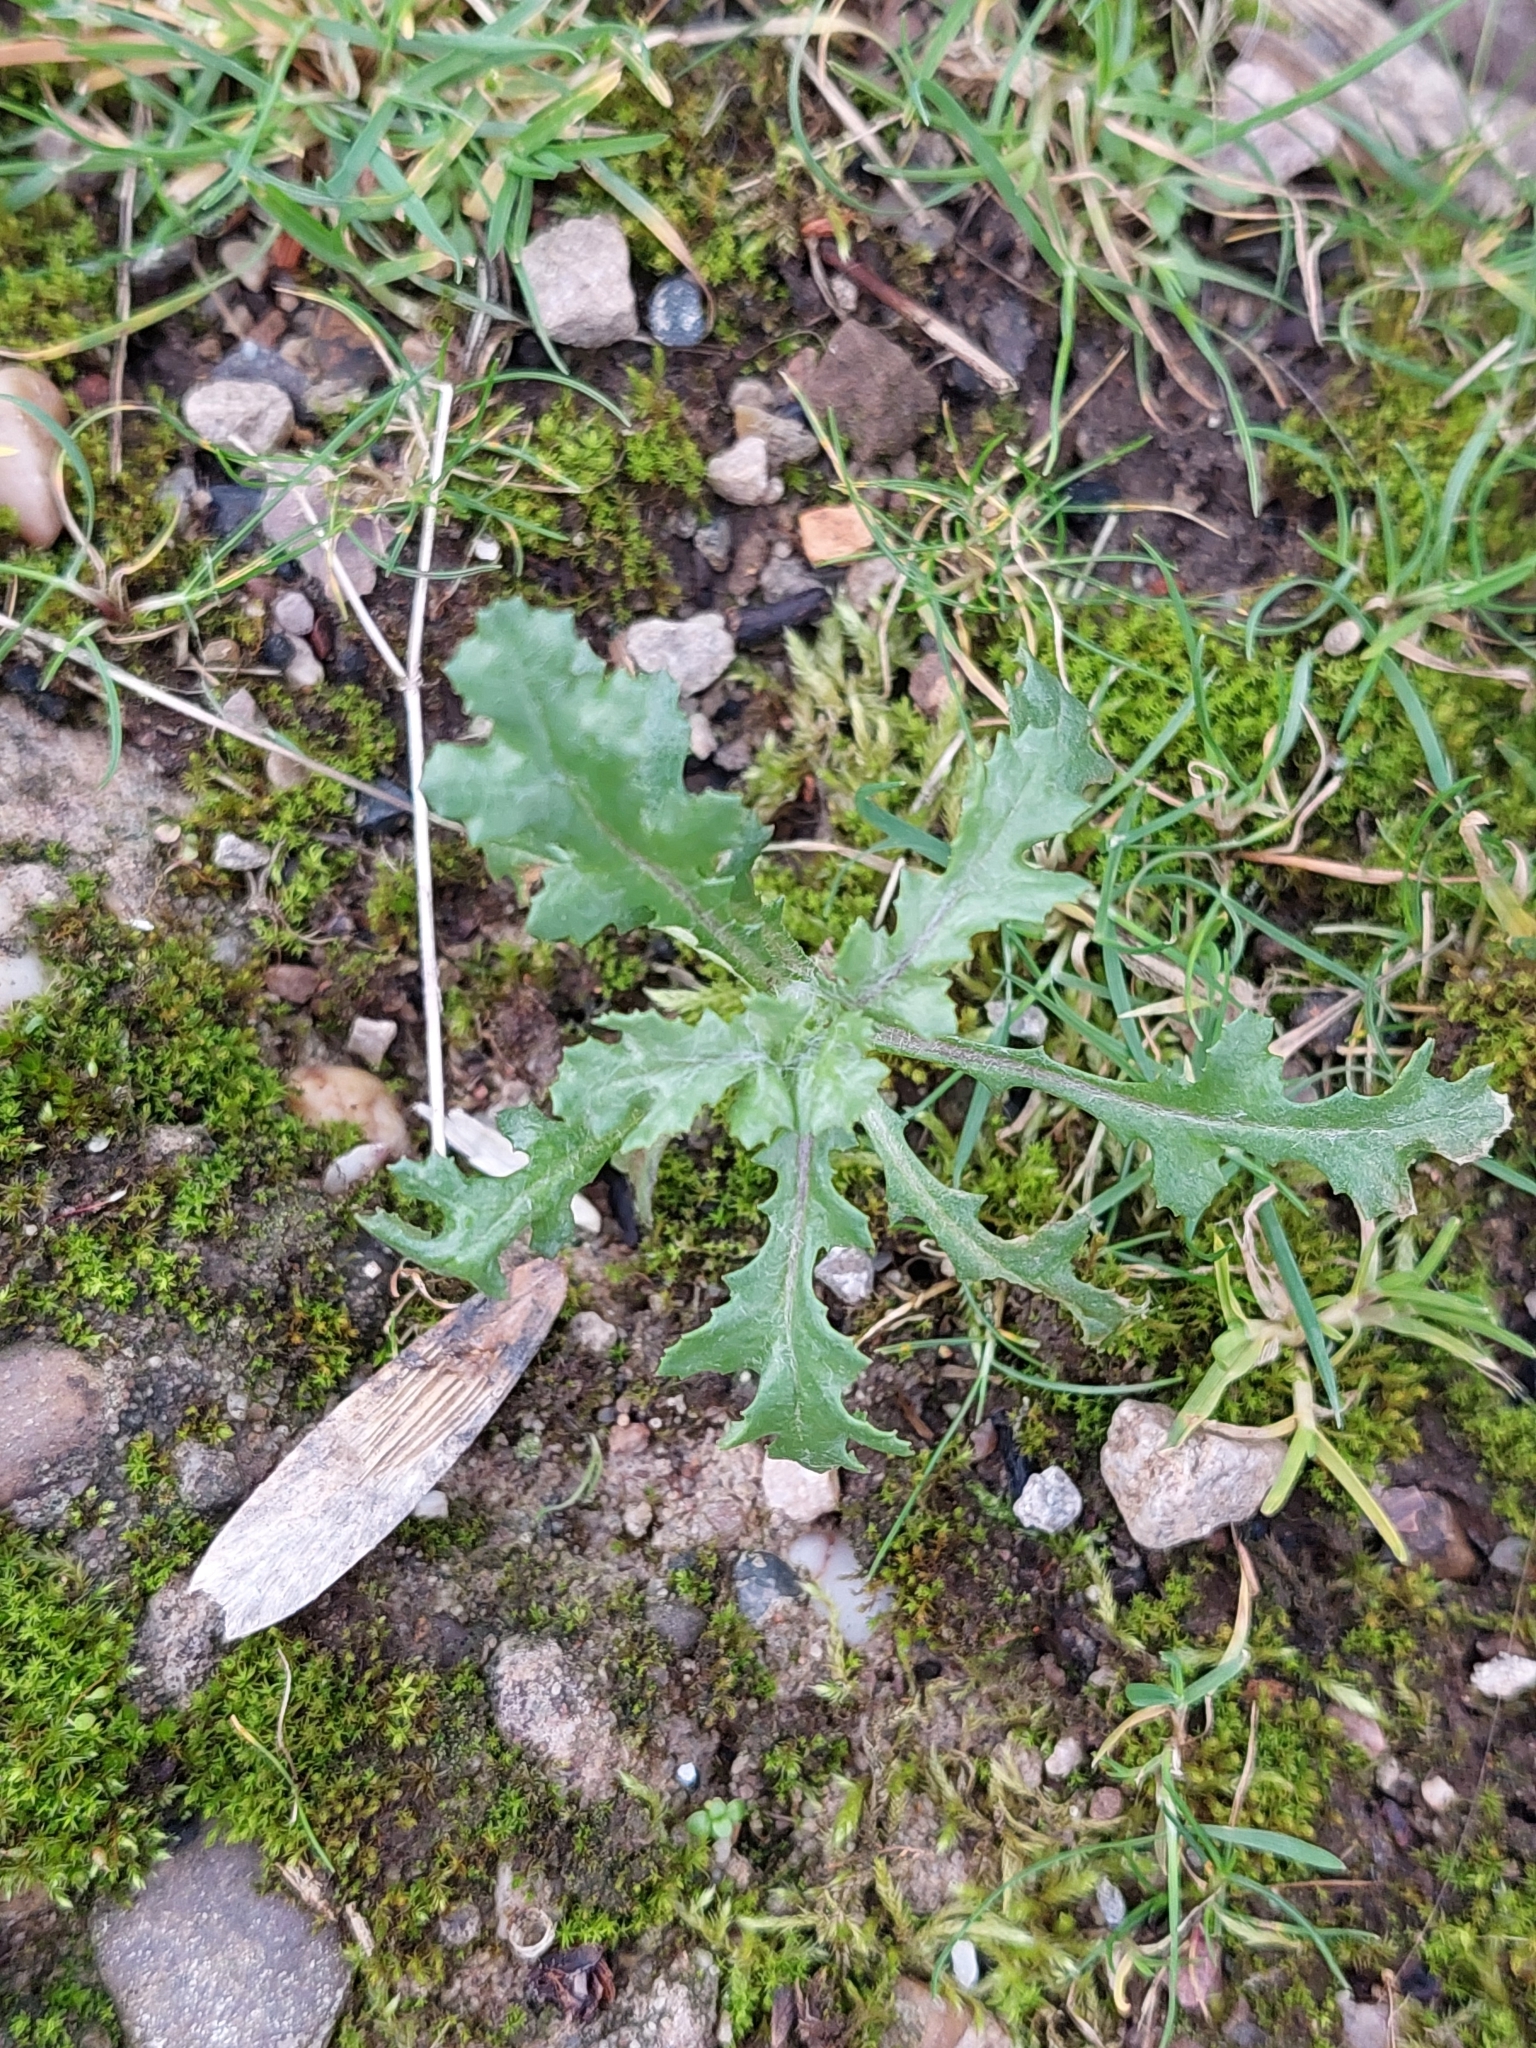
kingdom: Plantae
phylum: Tracheophyta
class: Magnoliopsida
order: Asterales
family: Asteraceae
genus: Senecio
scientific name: Senecio vulgaris
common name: Old-man-in-the-spring
